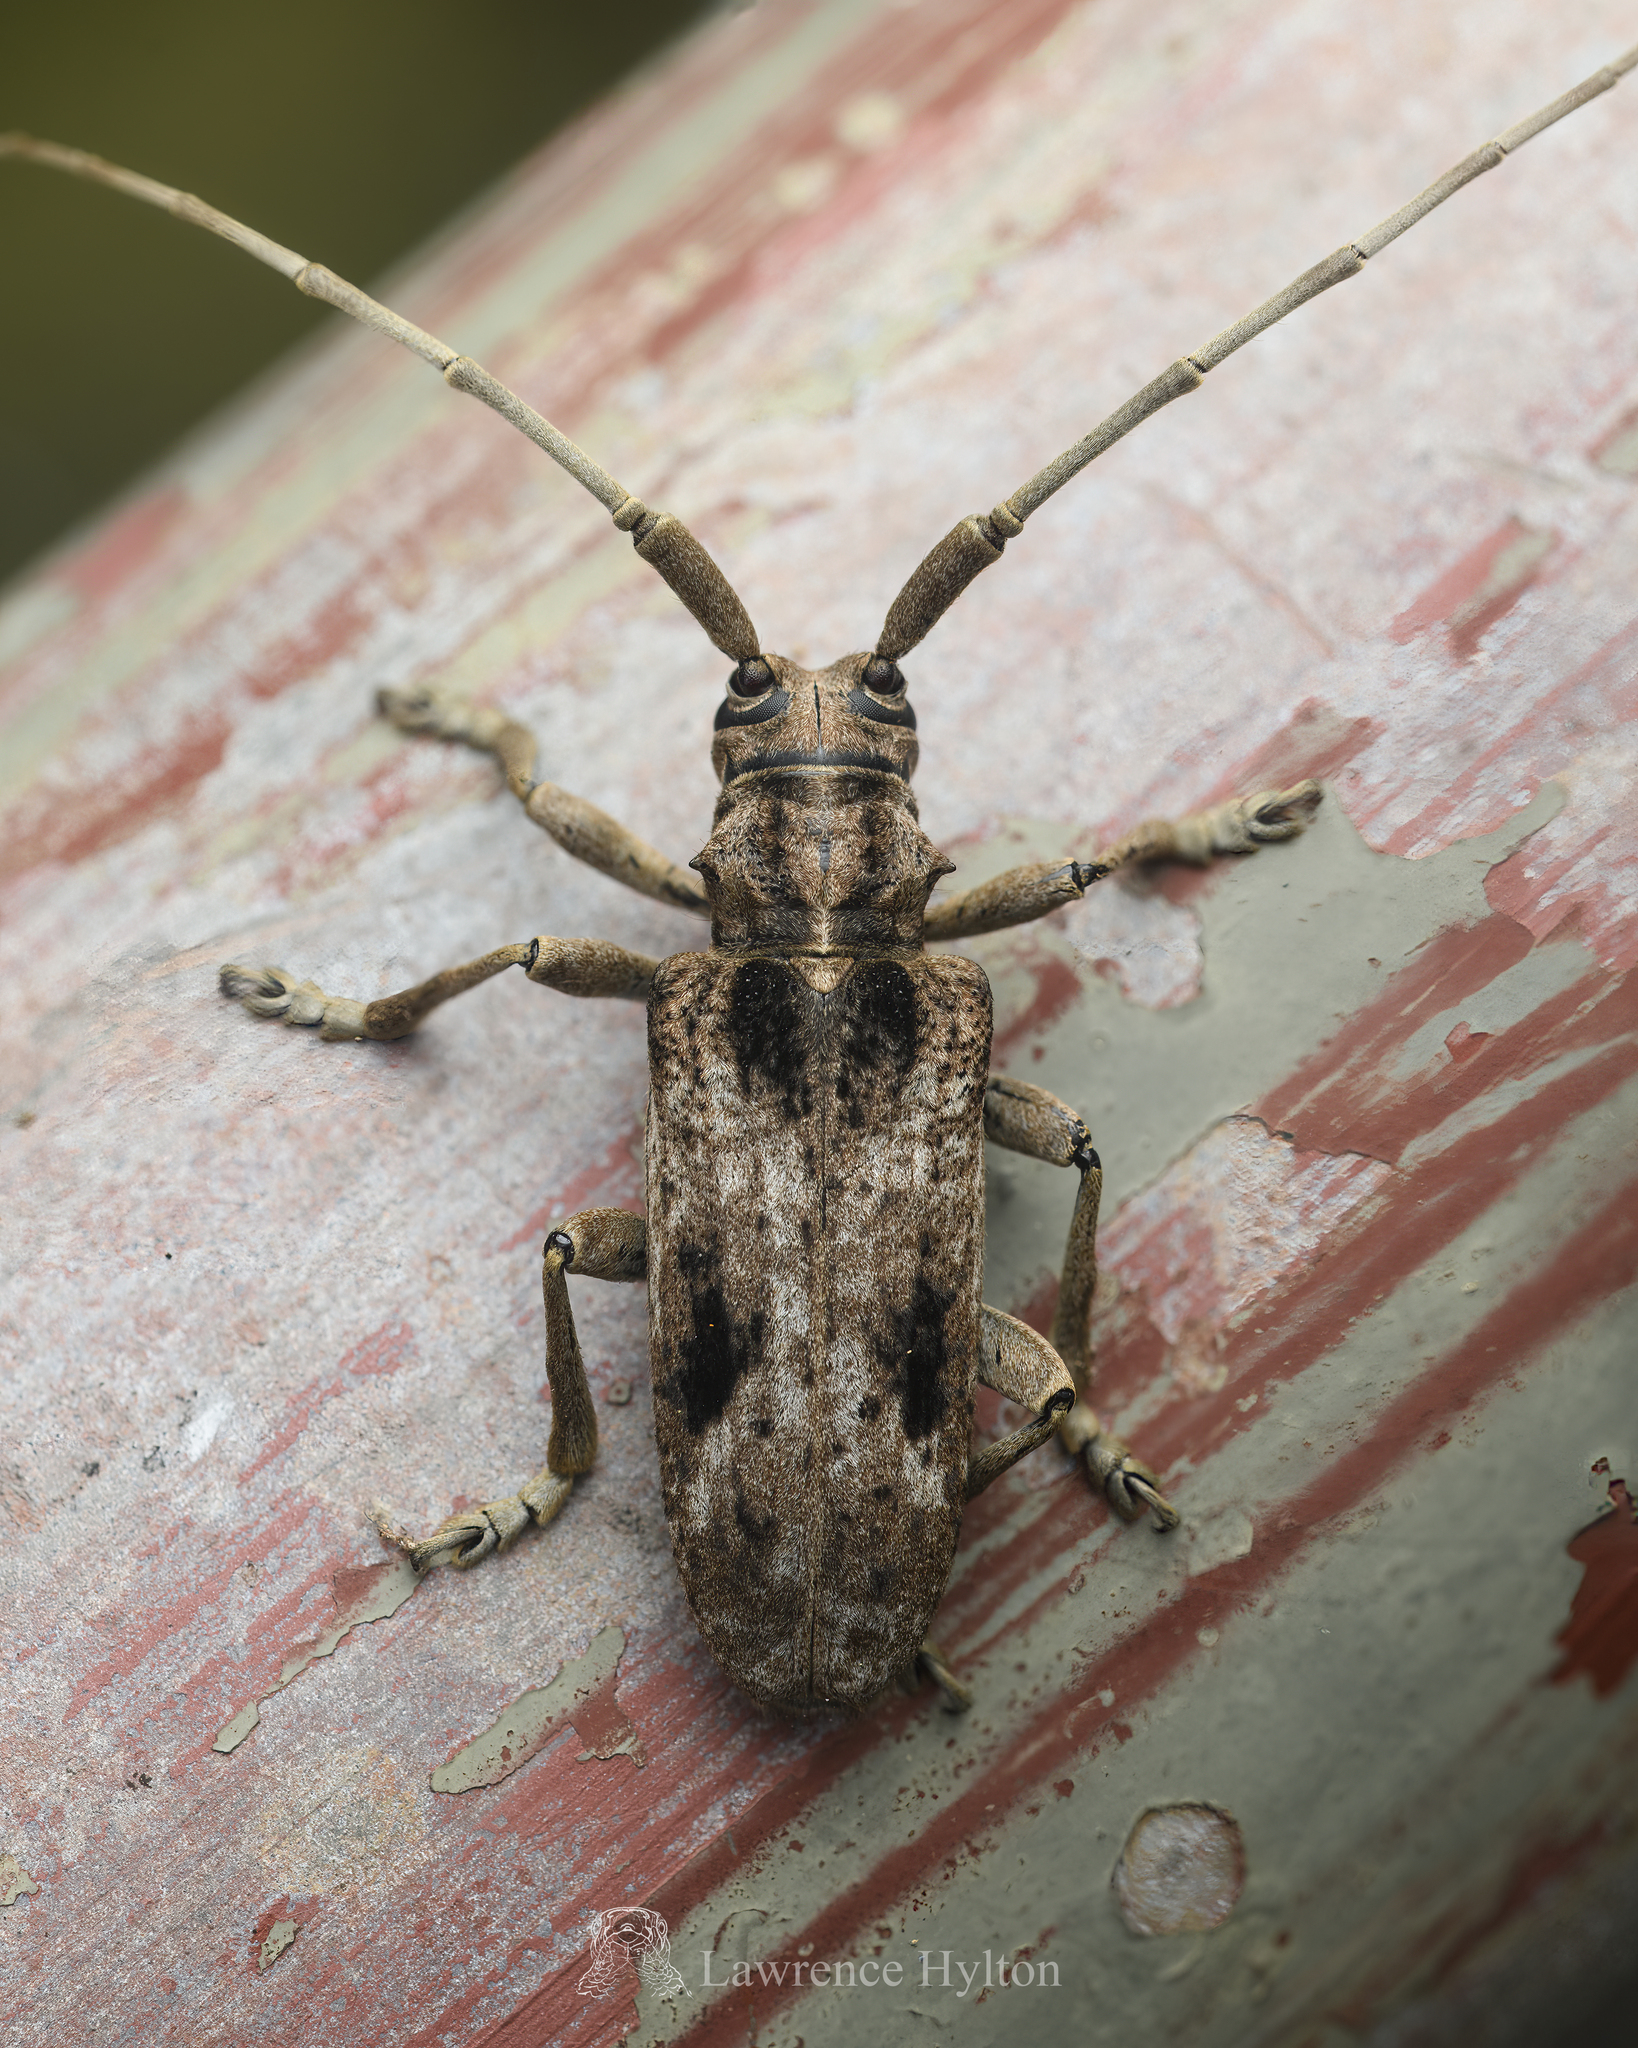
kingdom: Animalia
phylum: Arthropoda
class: Insecta
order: Coleoptera
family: Cerambycidae
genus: Blepephaeus
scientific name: Blepephaeus succinctor
